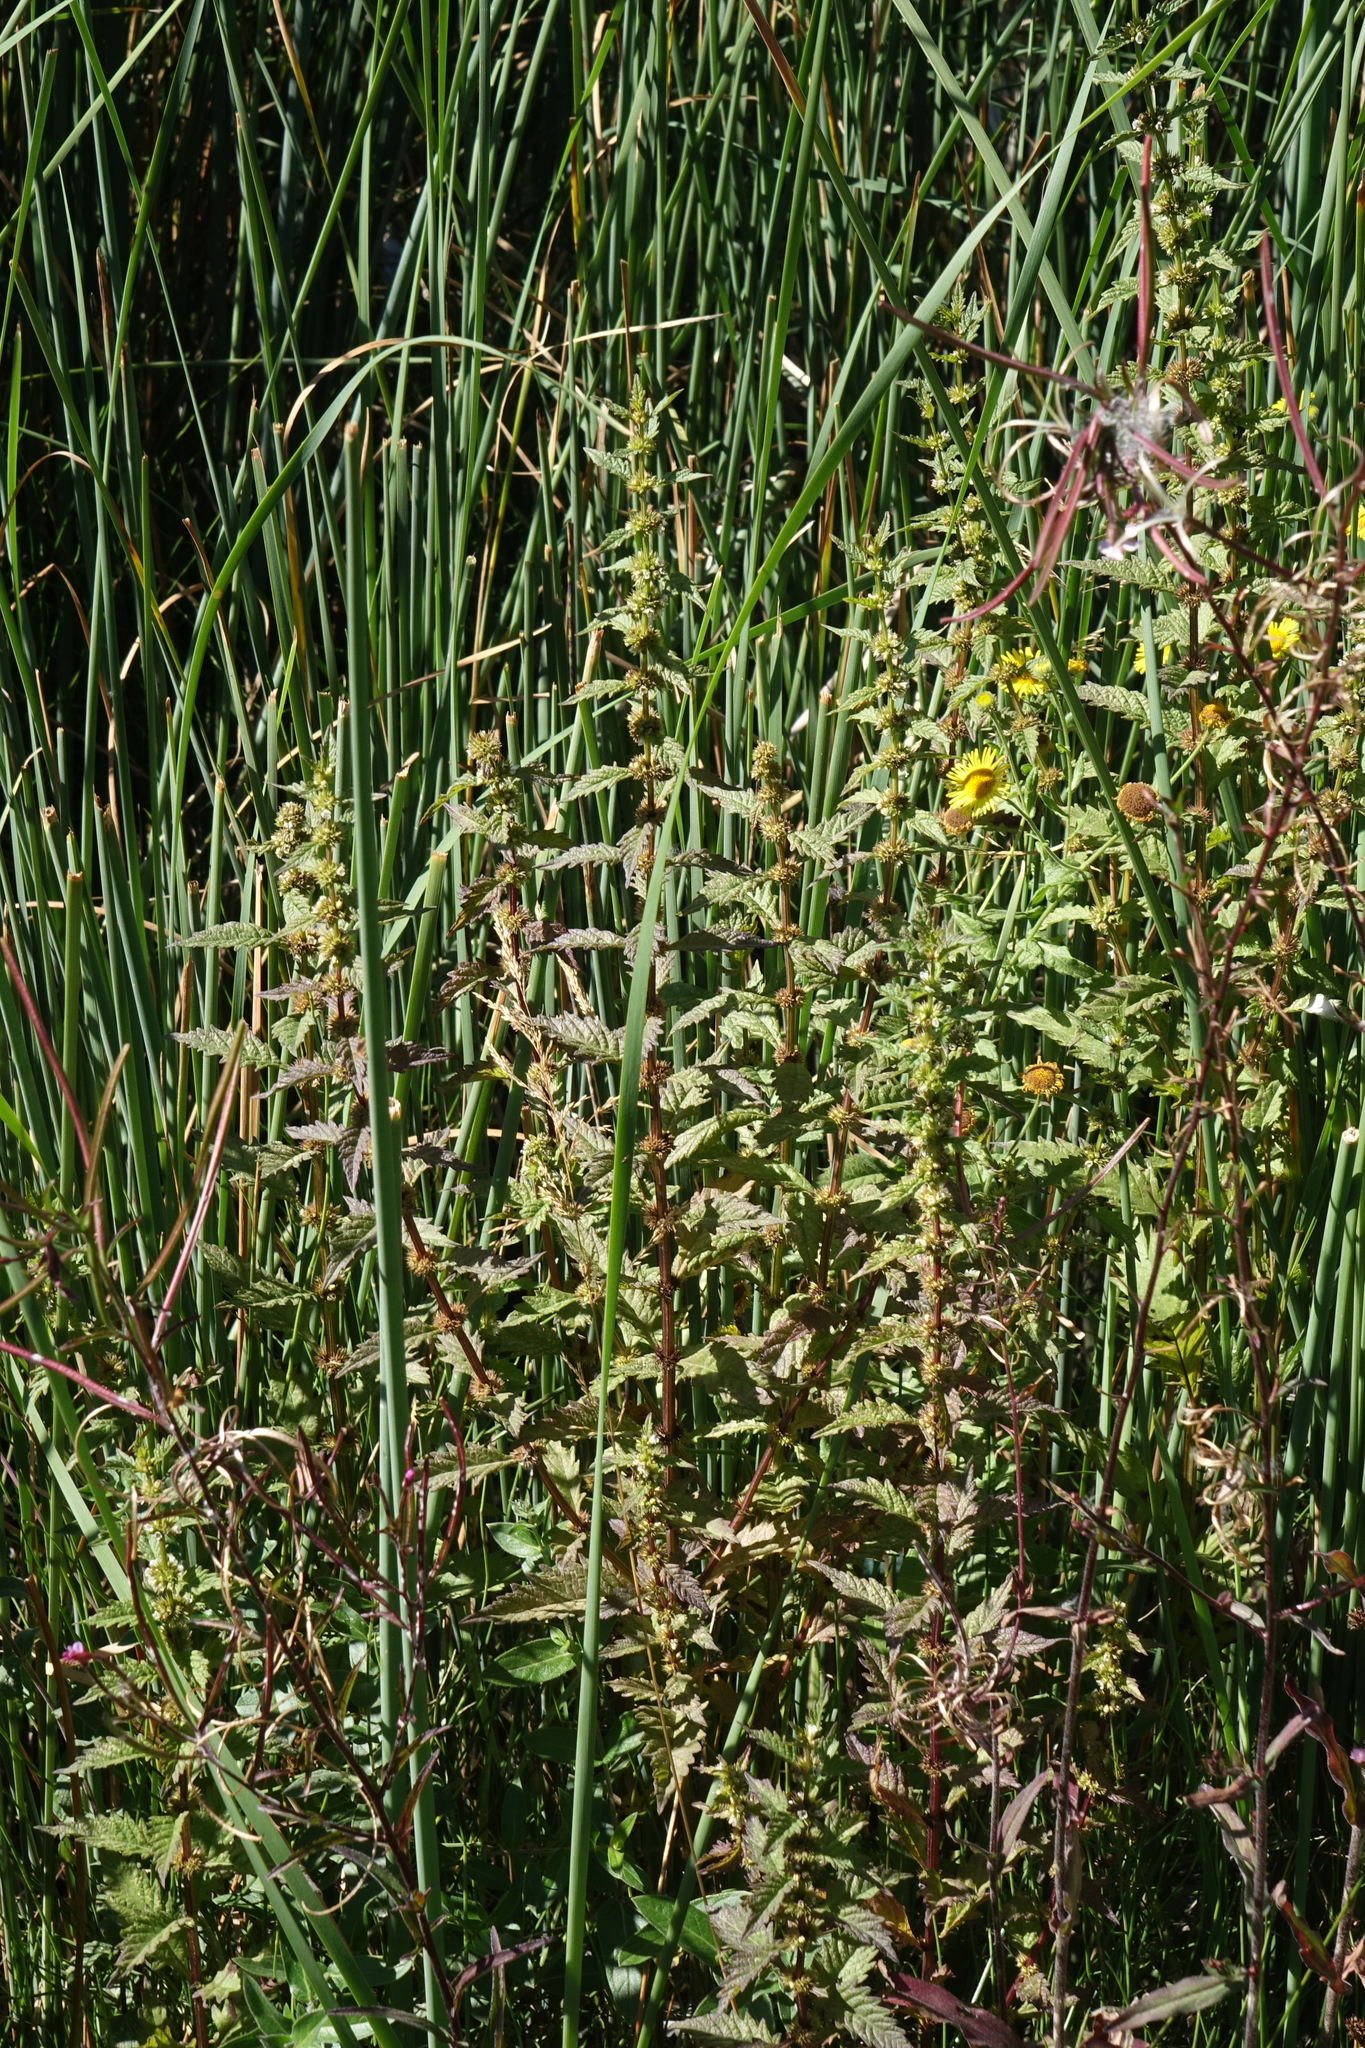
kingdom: Plantae
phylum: Tracheophyta
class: Magnoliopsida
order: Lamiales
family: Lamiaceae
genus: Lycopus
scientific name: Lycopus europaeus
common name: European bugleweed
